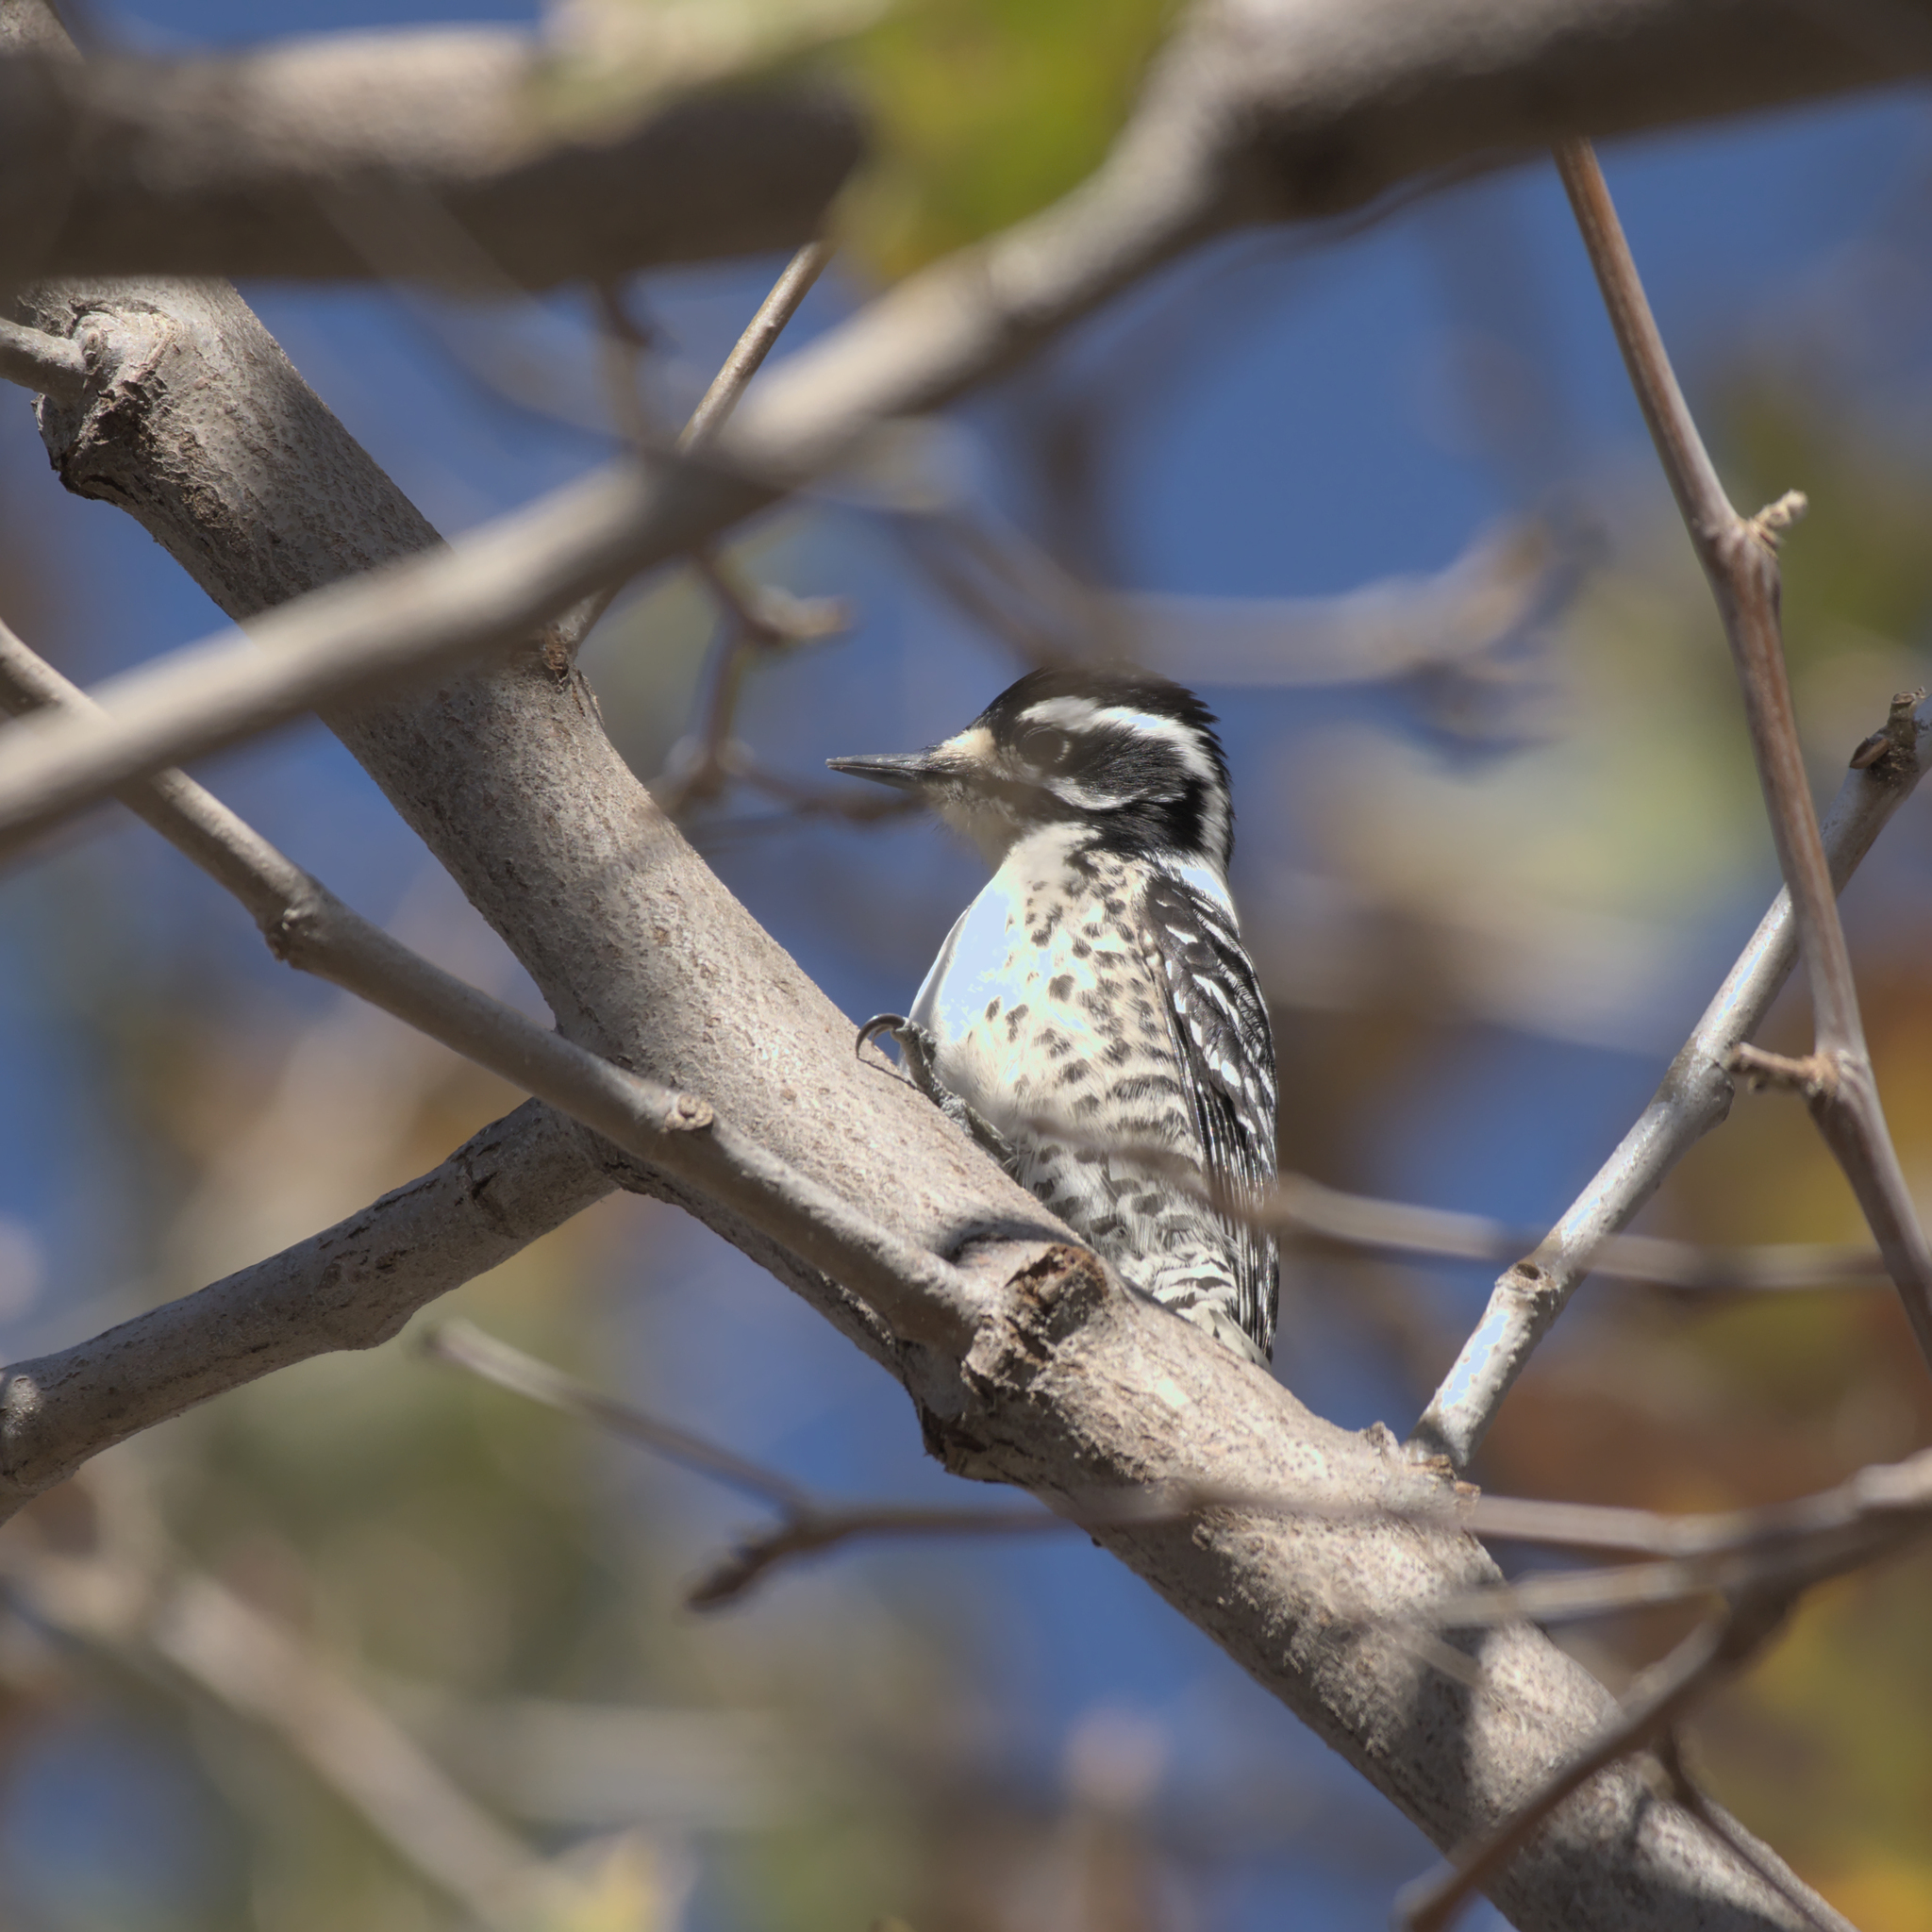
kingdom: Animalia
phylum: Chordata
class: Aves
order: Piciformes
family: Picidae
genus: Dryobates
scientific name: Dryobates nuttallii
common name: Nuttall's woodpecker
